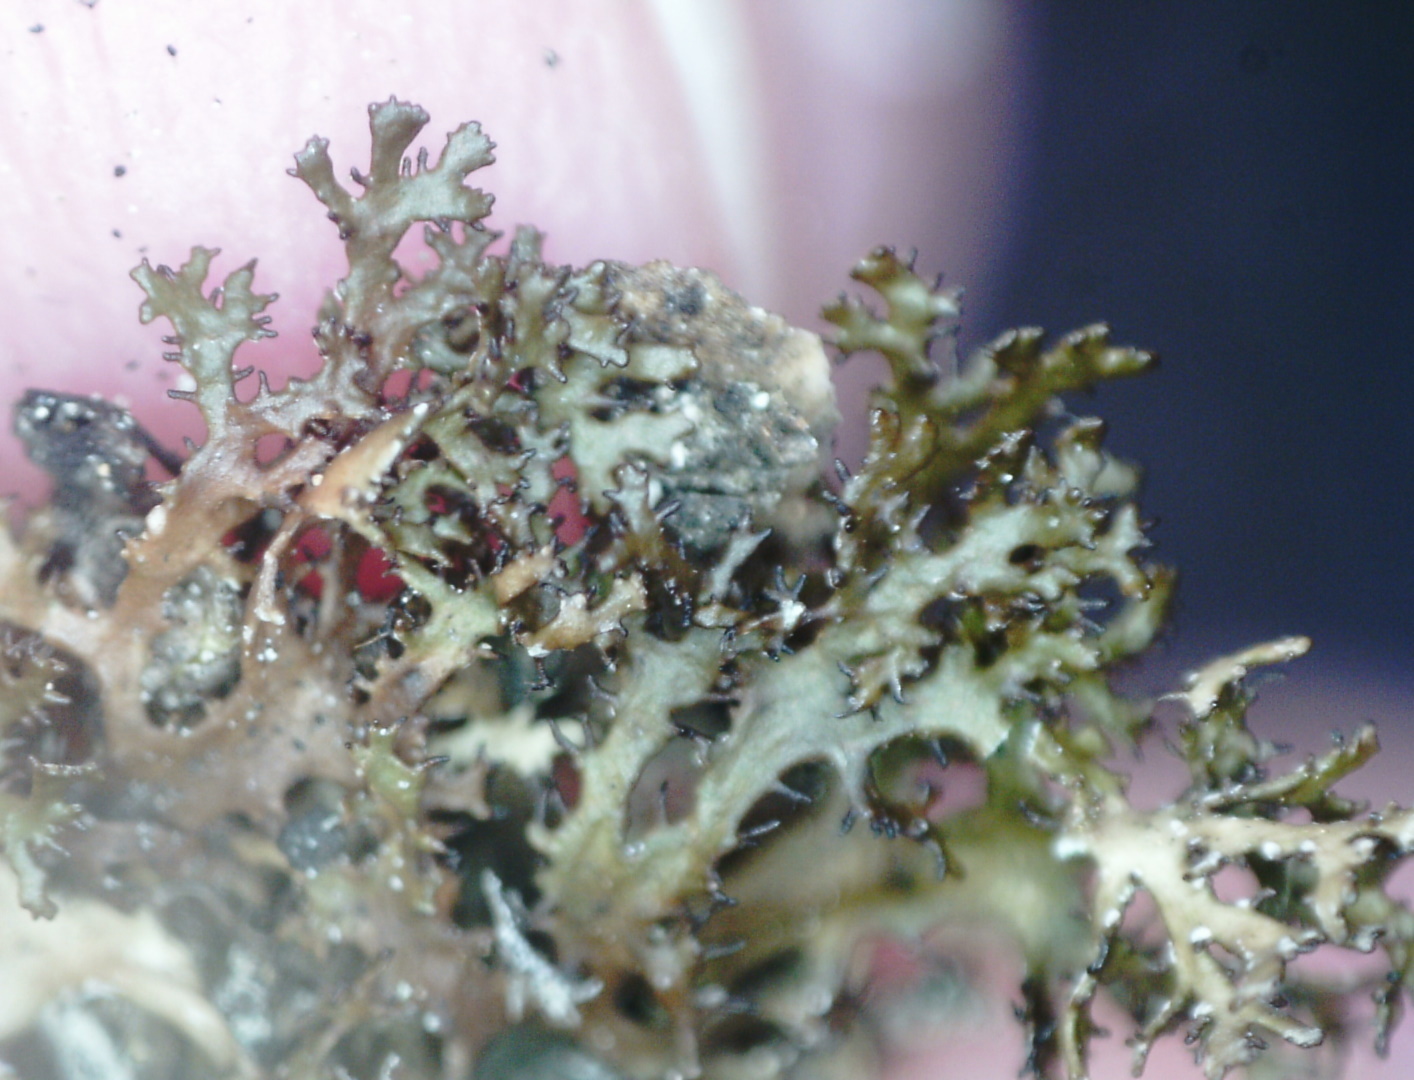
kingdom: Fungi
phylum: Ascomycota
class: Lecanoromycetes
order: Lecanorales
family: Parmeliaceae
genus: Cetraria
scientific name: Cetraria odontella
